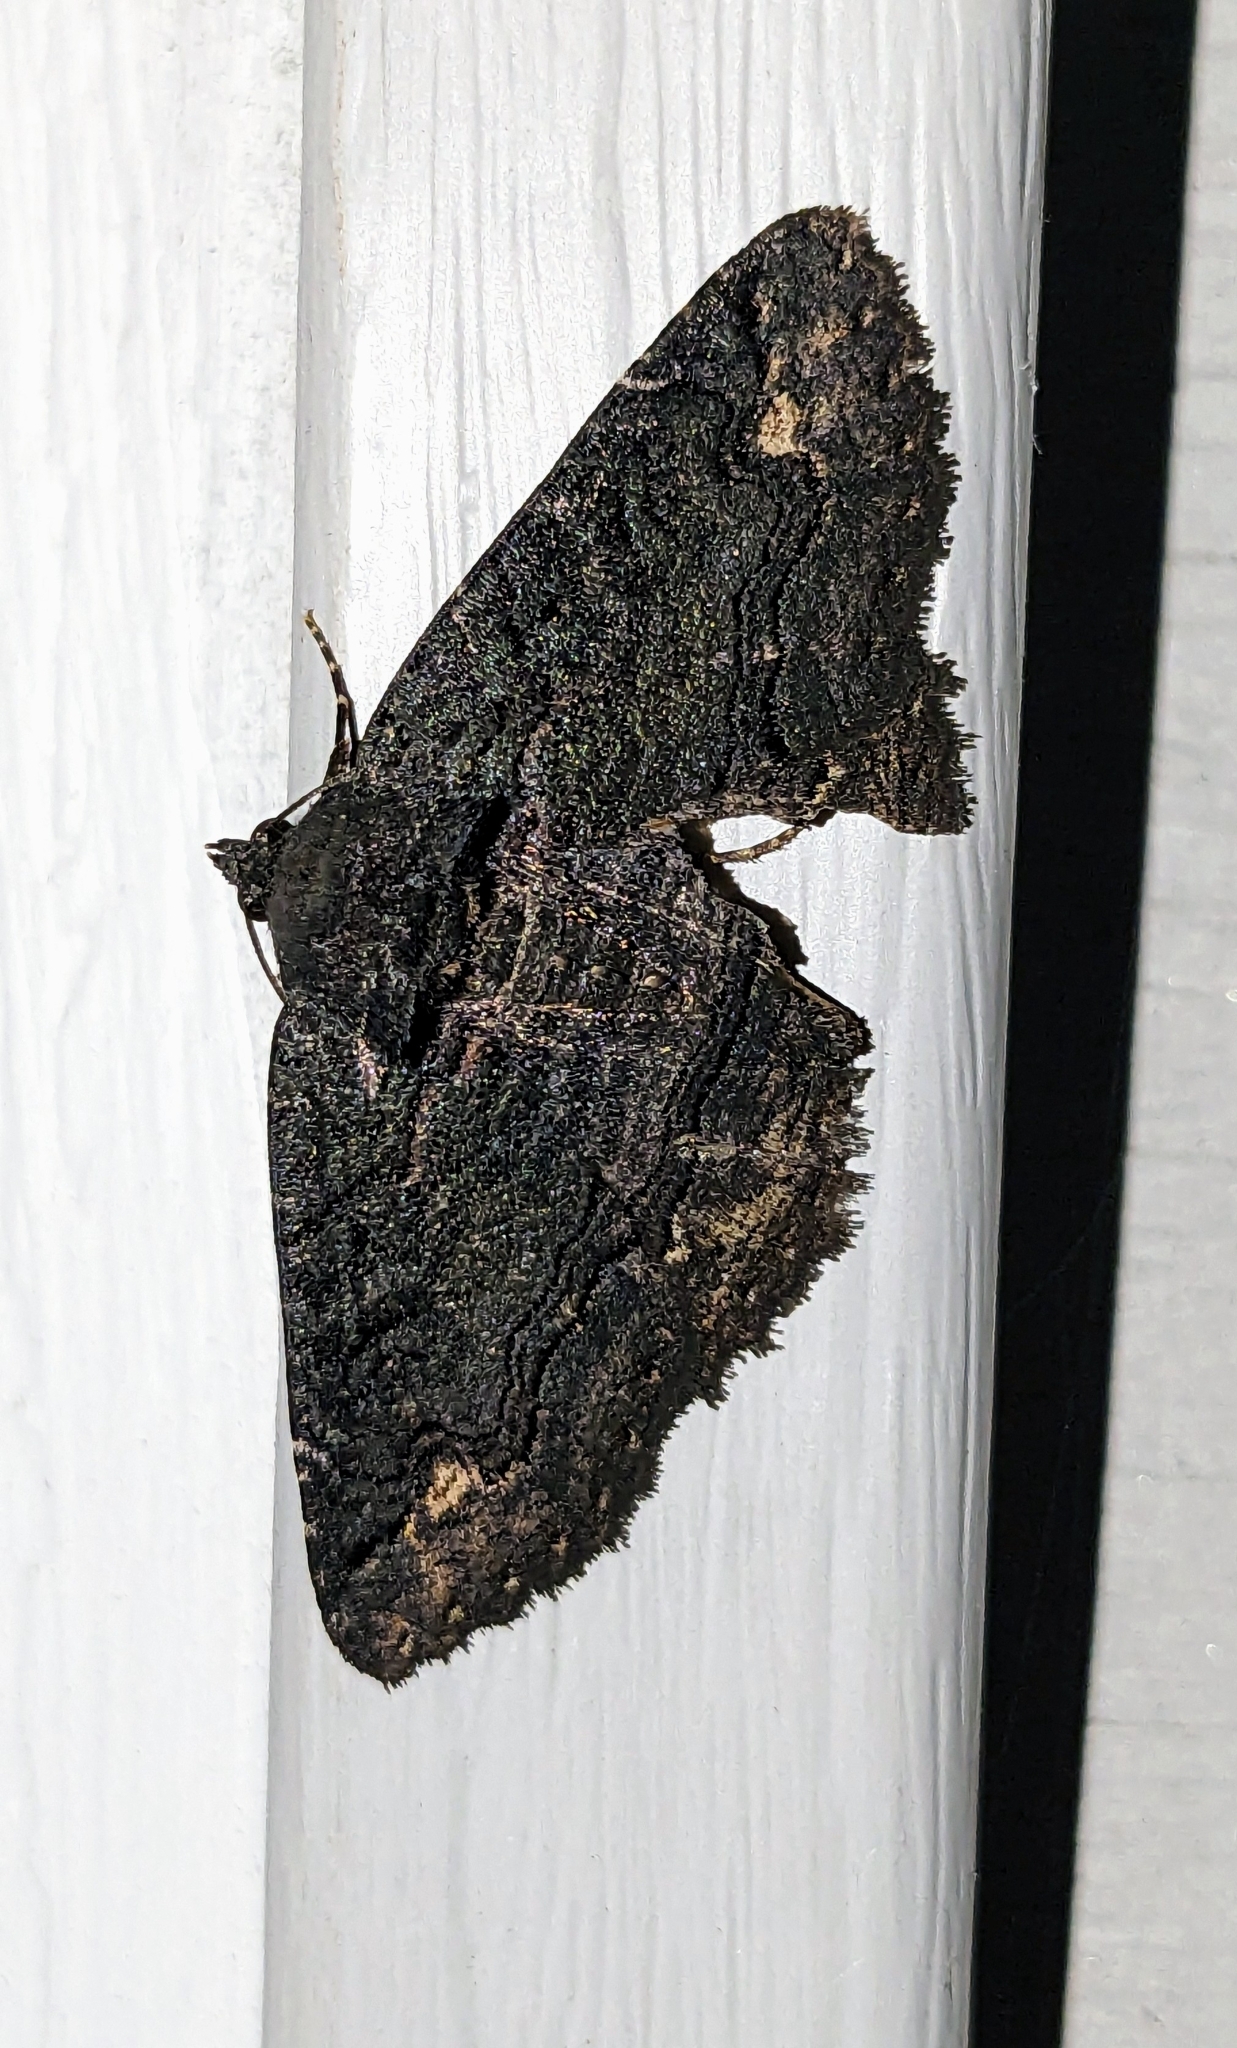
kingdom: Animalia
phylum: Arthropoda
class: Insecta
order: Lepidoptera
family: Erebidae
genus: Zale
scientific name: Zale undularis
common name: Black zale moth
